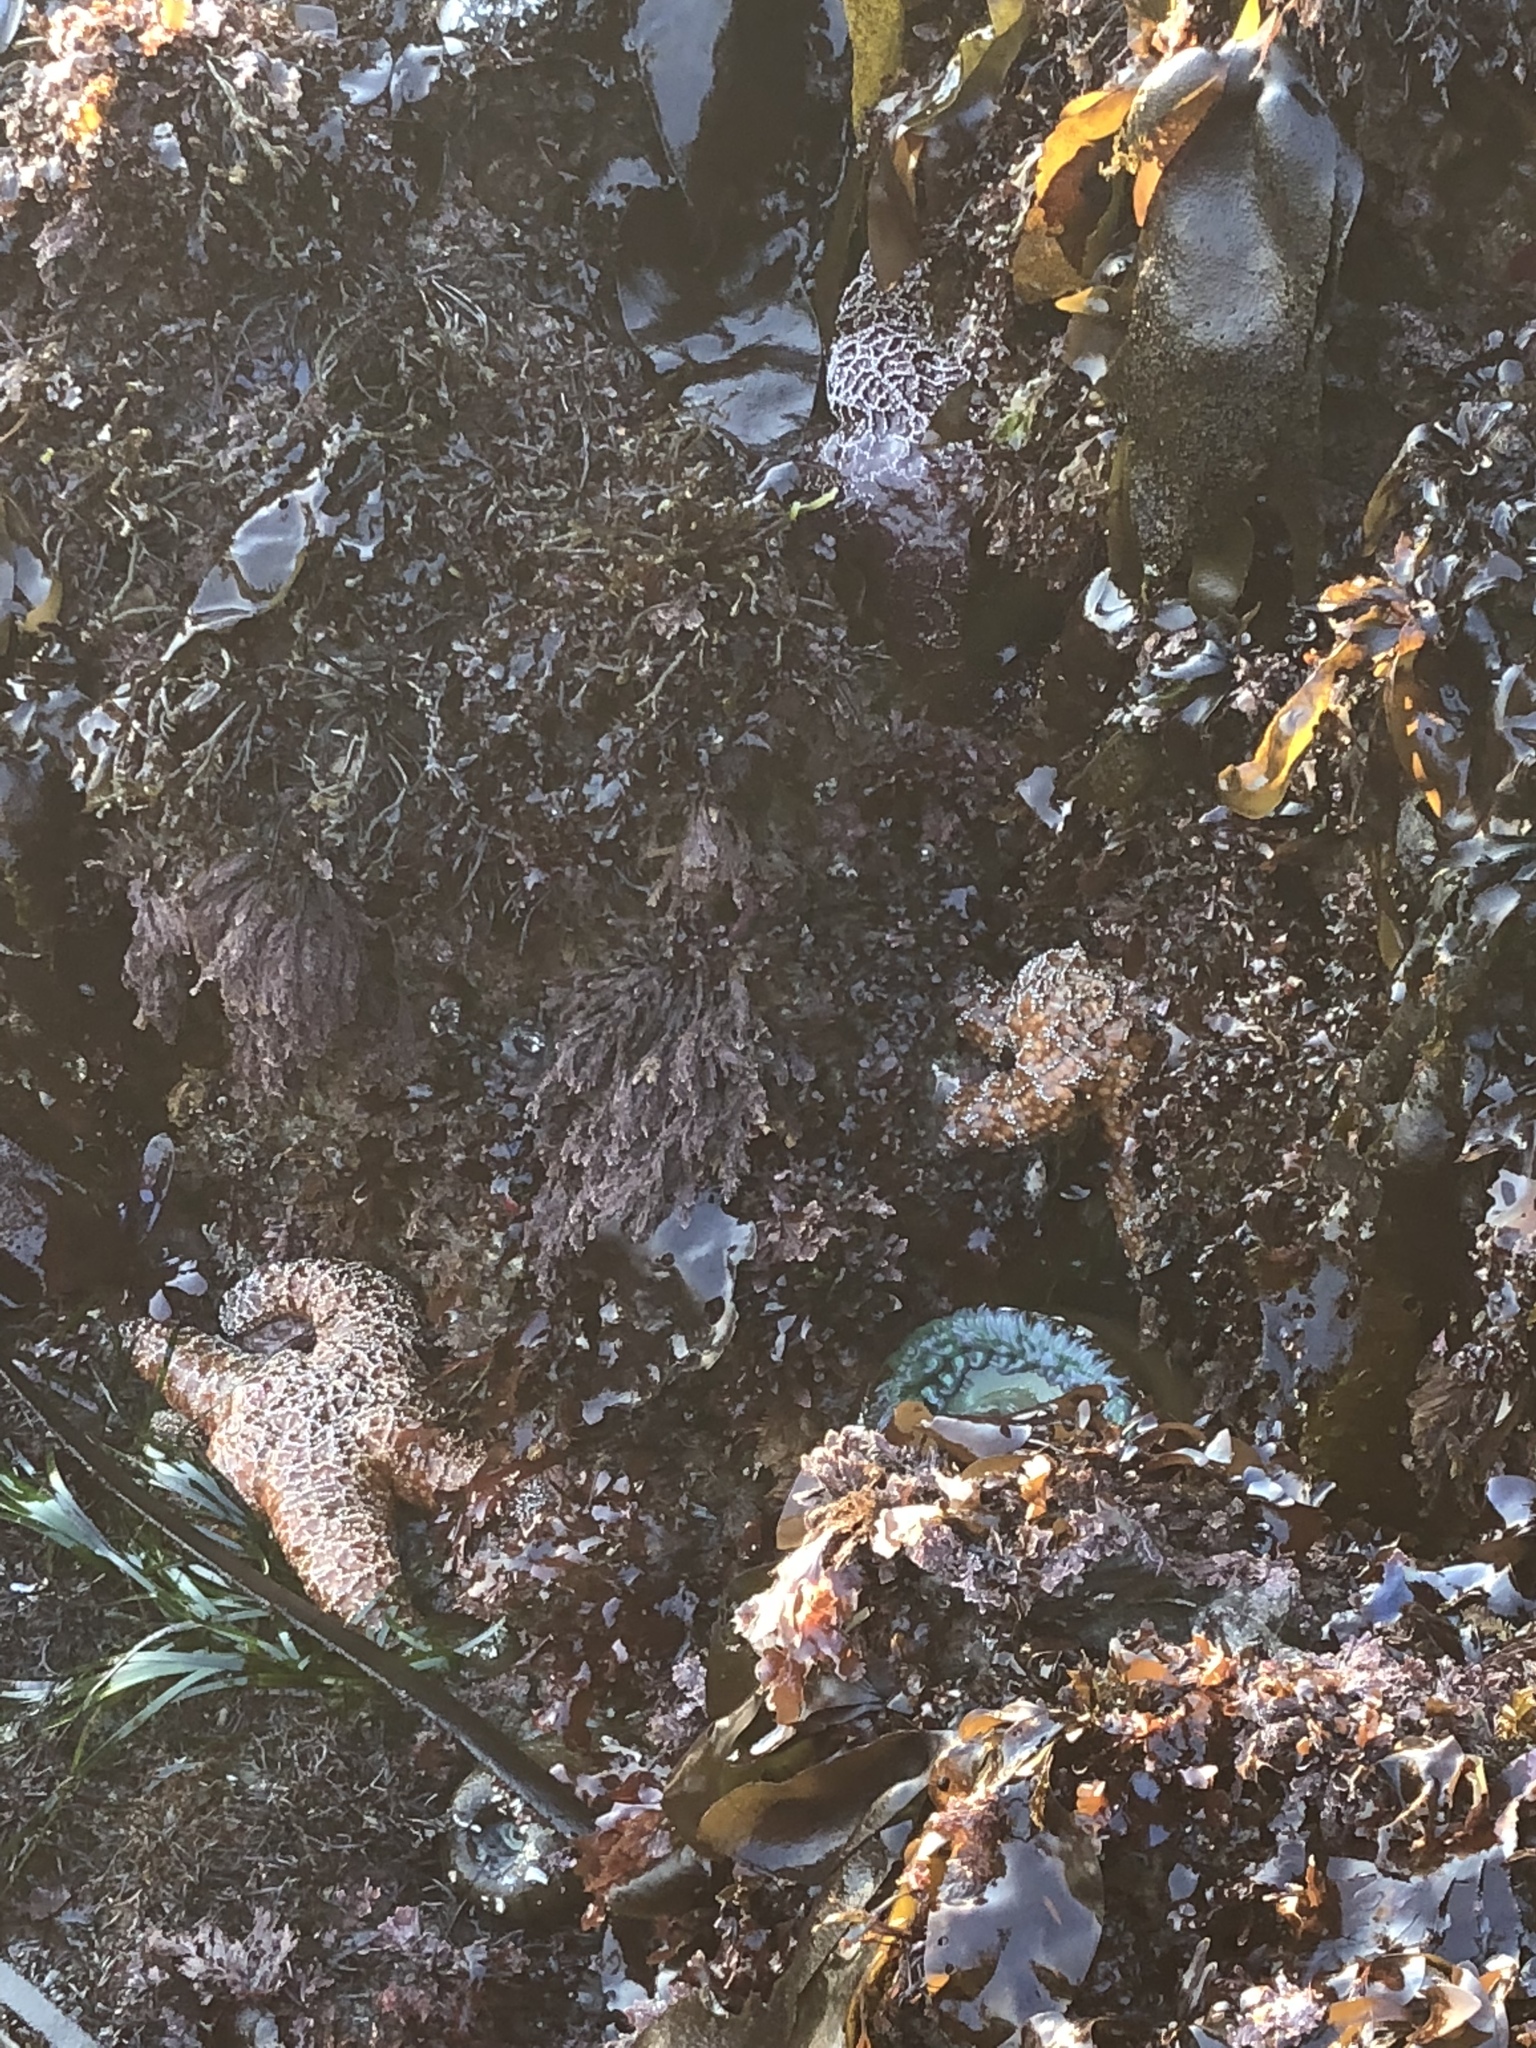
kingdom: Animalia
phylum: Echinodermata
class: Asteroidea
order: Forcipulatida
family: Asteriidae
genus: Pisaster
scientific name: Pisaster ochraceus
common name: Ochre stars
